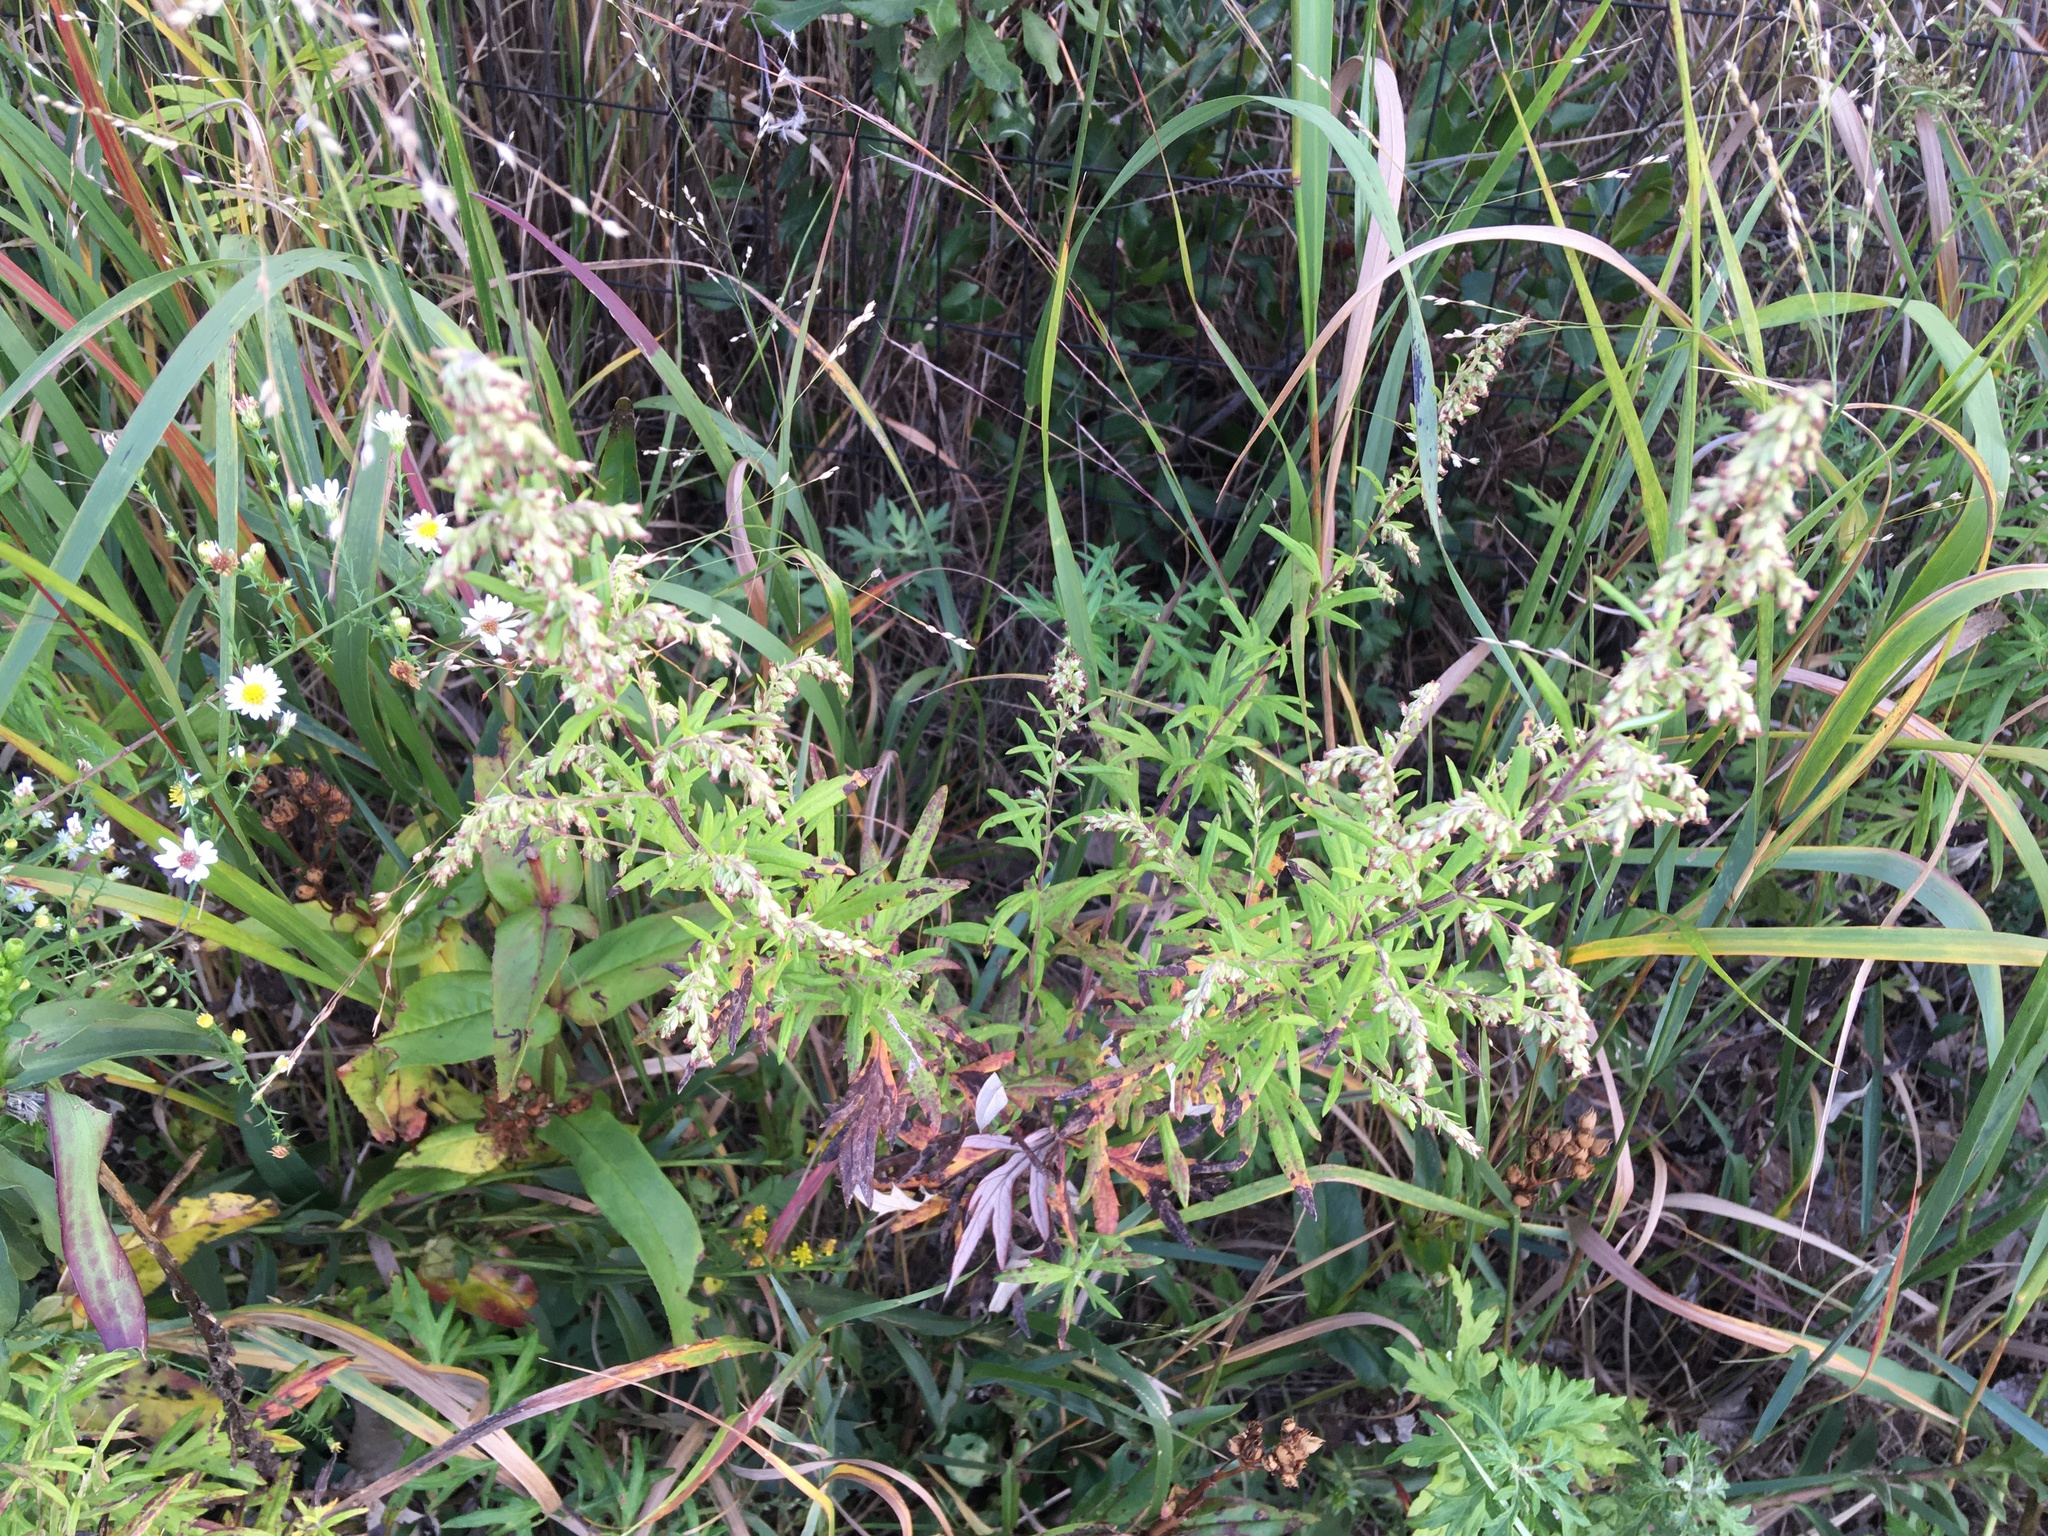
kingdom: Plantae
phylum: Tracheophyta
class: Magnoliopsida
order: Asterales
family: Asteraceae
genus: Artemisia
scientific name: Artemisia vulgaris
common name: Mugwort
